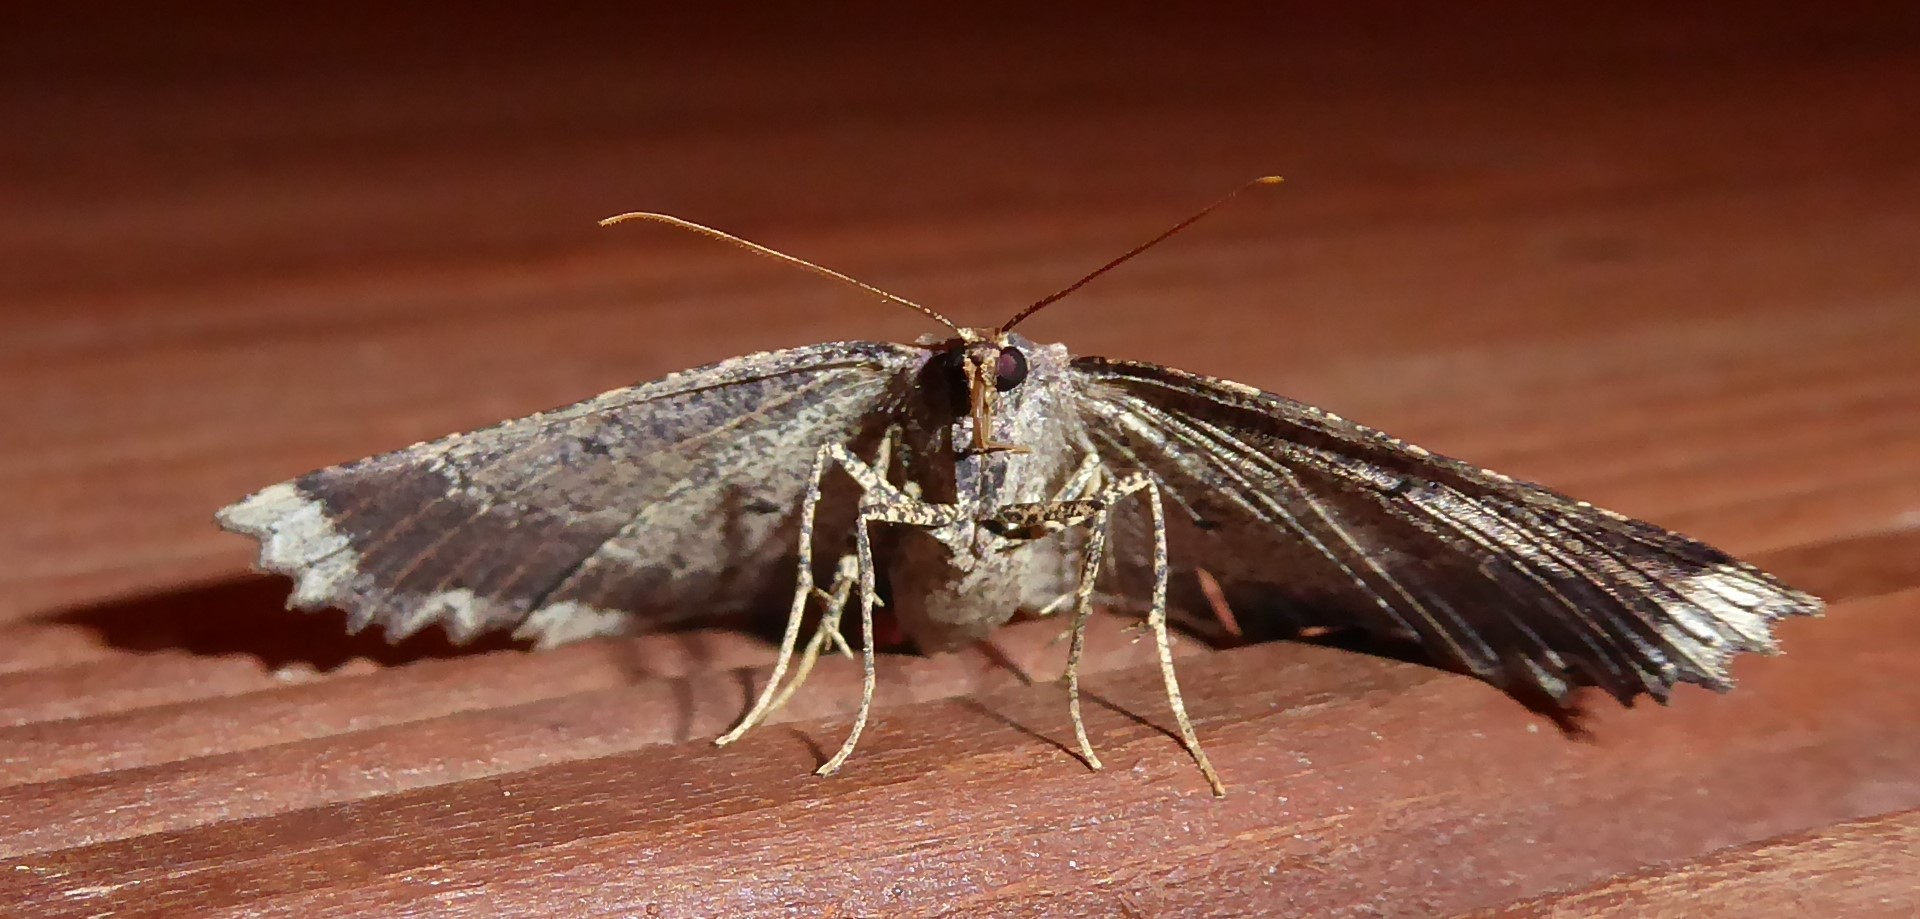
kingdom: Animalia
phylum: Arthropoda
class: Insecta
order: Lepidoptera
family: Geometridae
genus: Gellonia
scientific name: Gellonia pannularia
